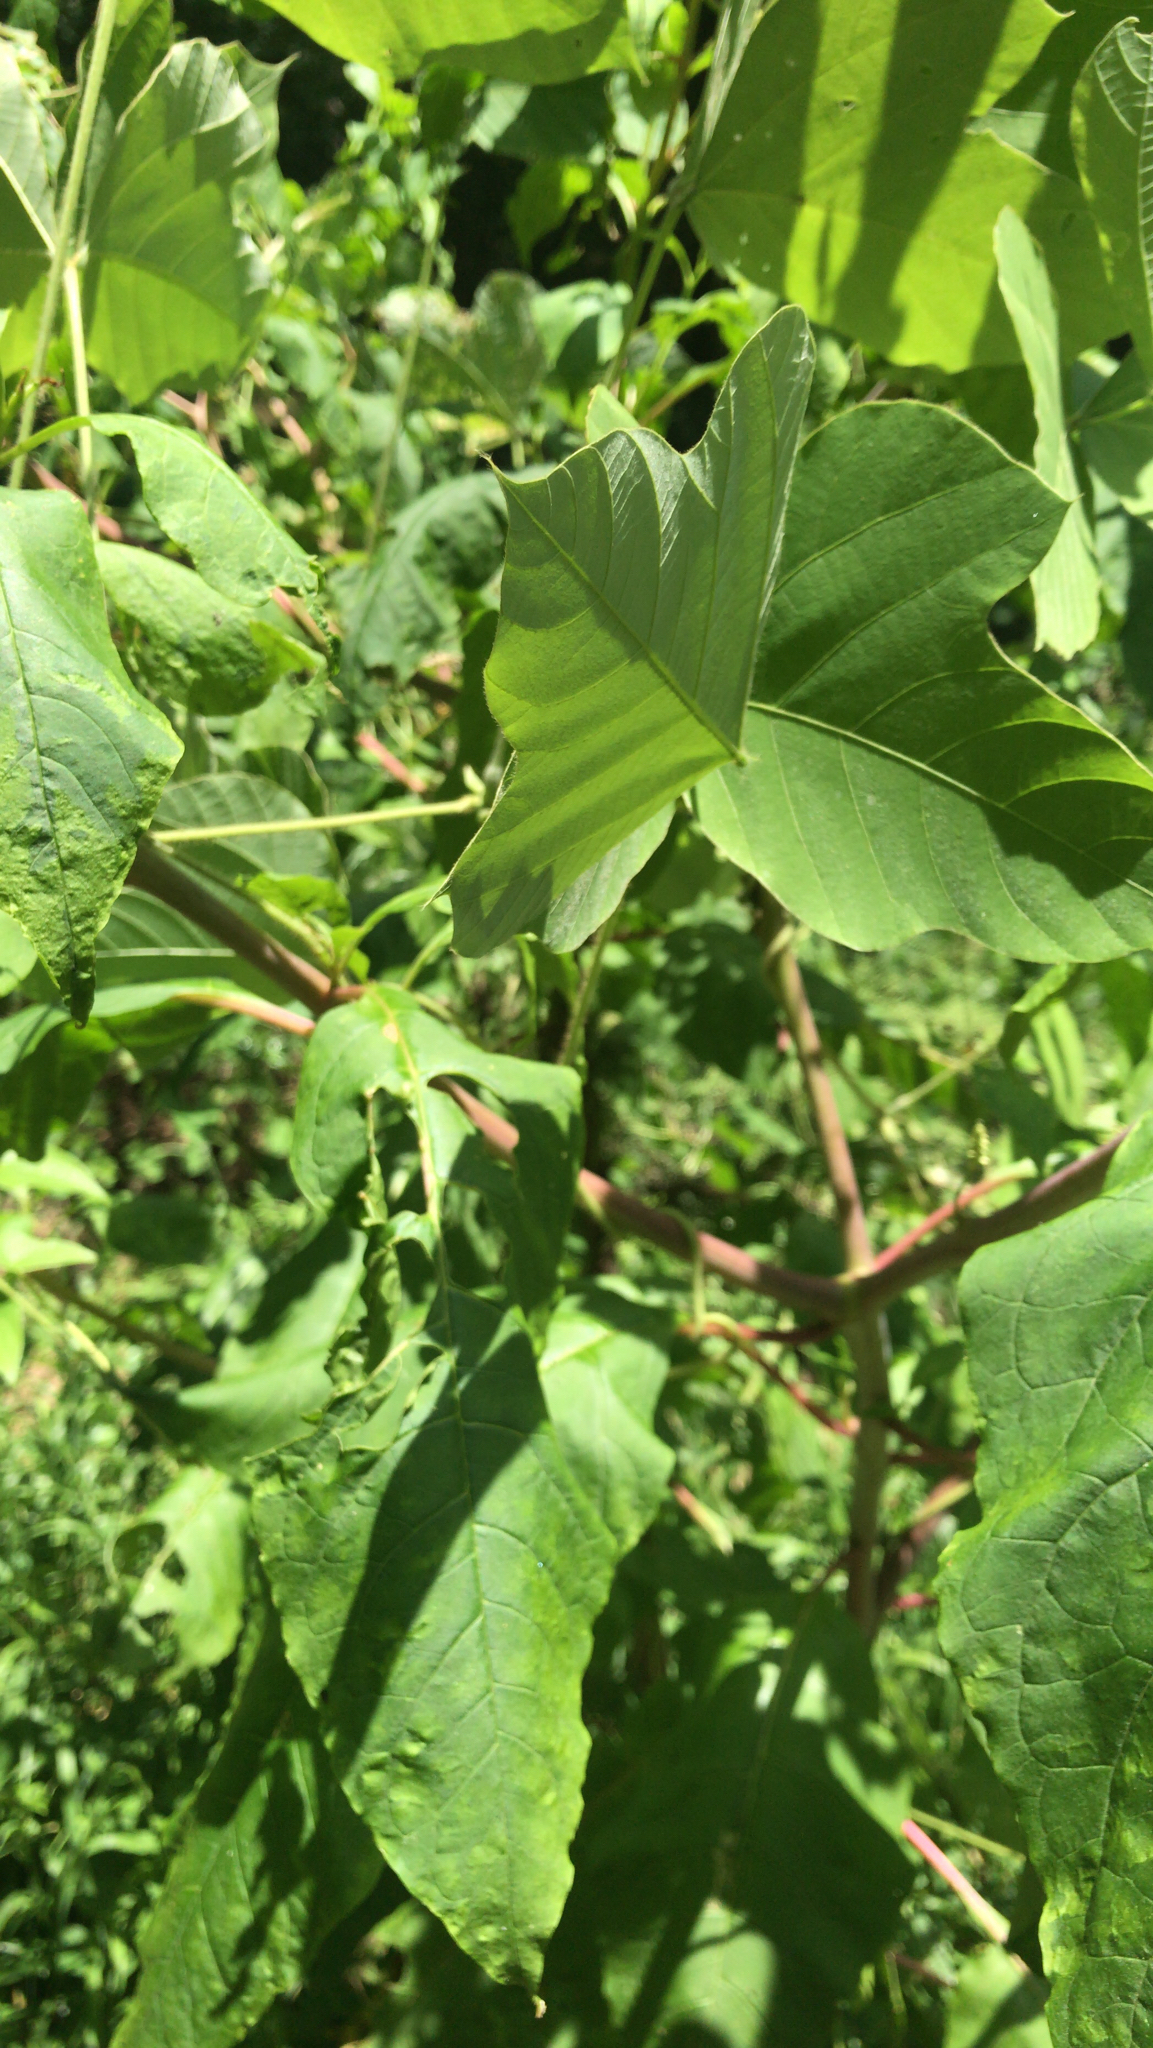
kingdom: Plantae
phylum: Tracheophyta
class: Magnoliopsida
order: Caryophyllales
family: Phytolaccaceae
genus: Phytolacca
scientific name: Phytolacca americana
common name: American pokeweed
